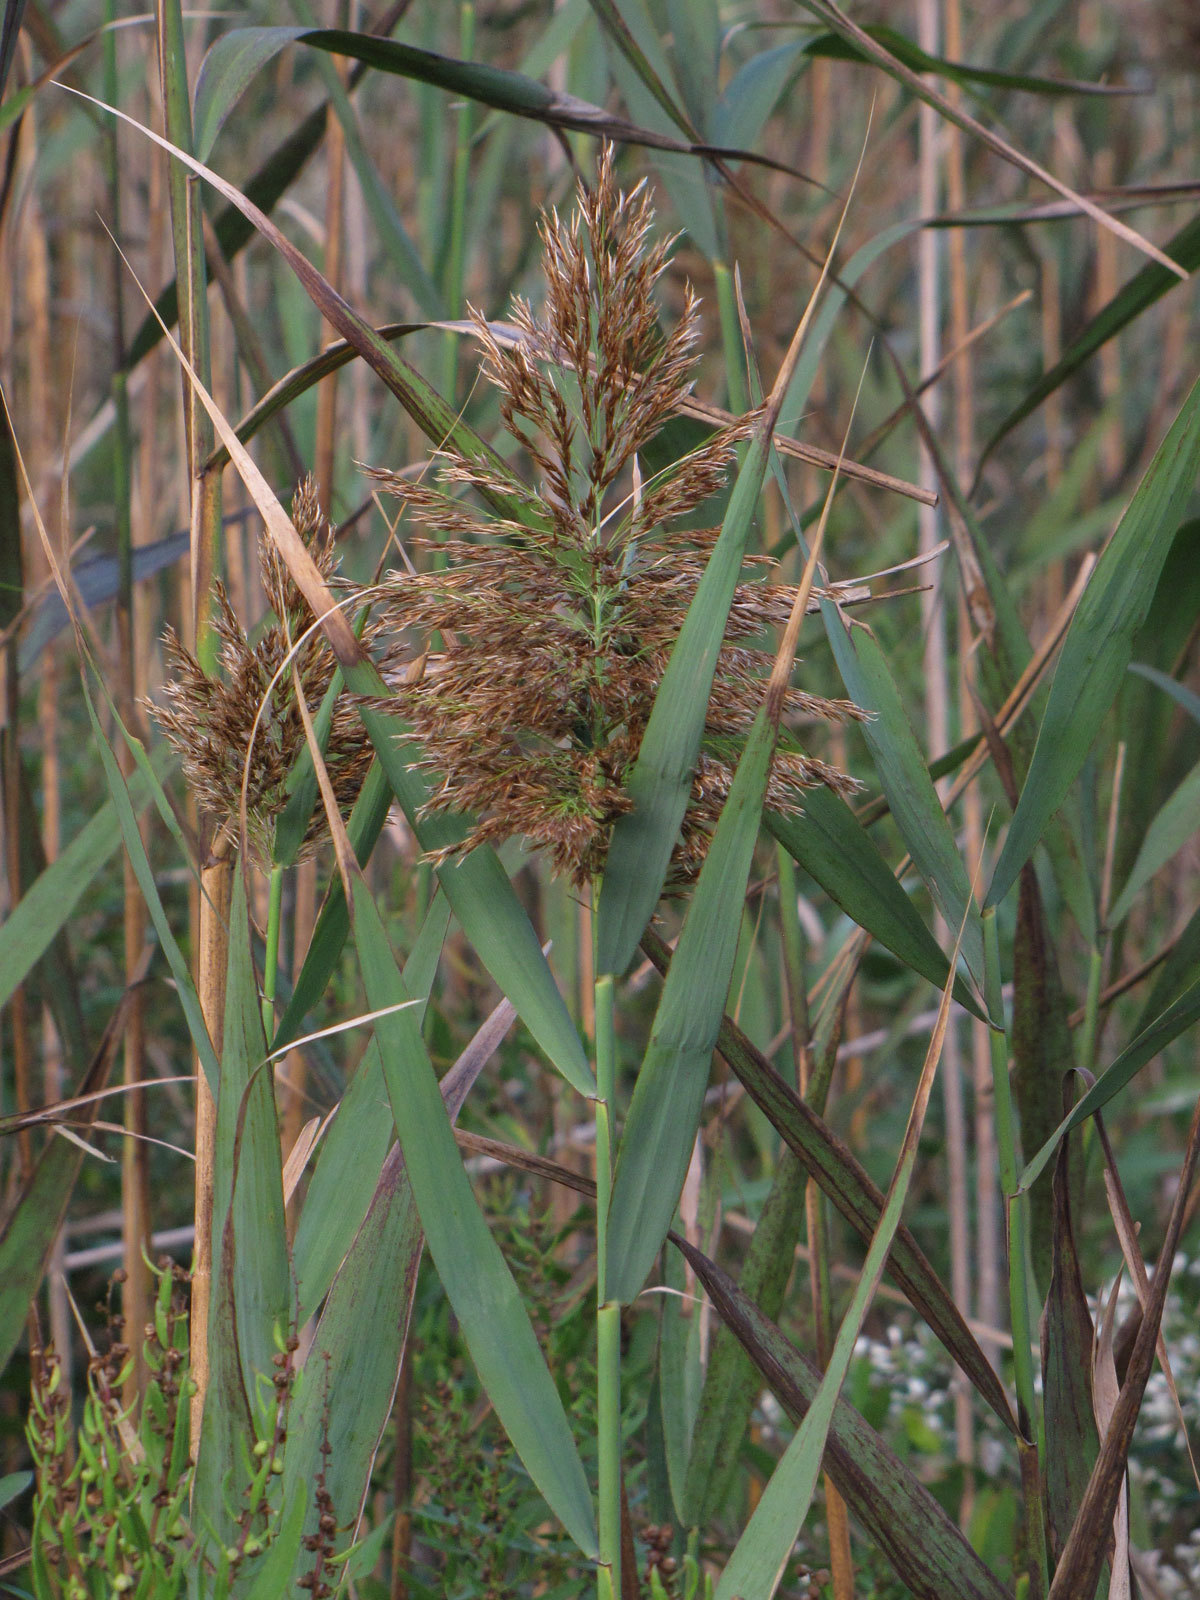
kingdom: Plantae
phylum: Tracheophyta
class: Liliopsida
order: Poales
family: Poaceae
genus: Phragmites
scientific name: Phragmites australis
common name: Common reed
